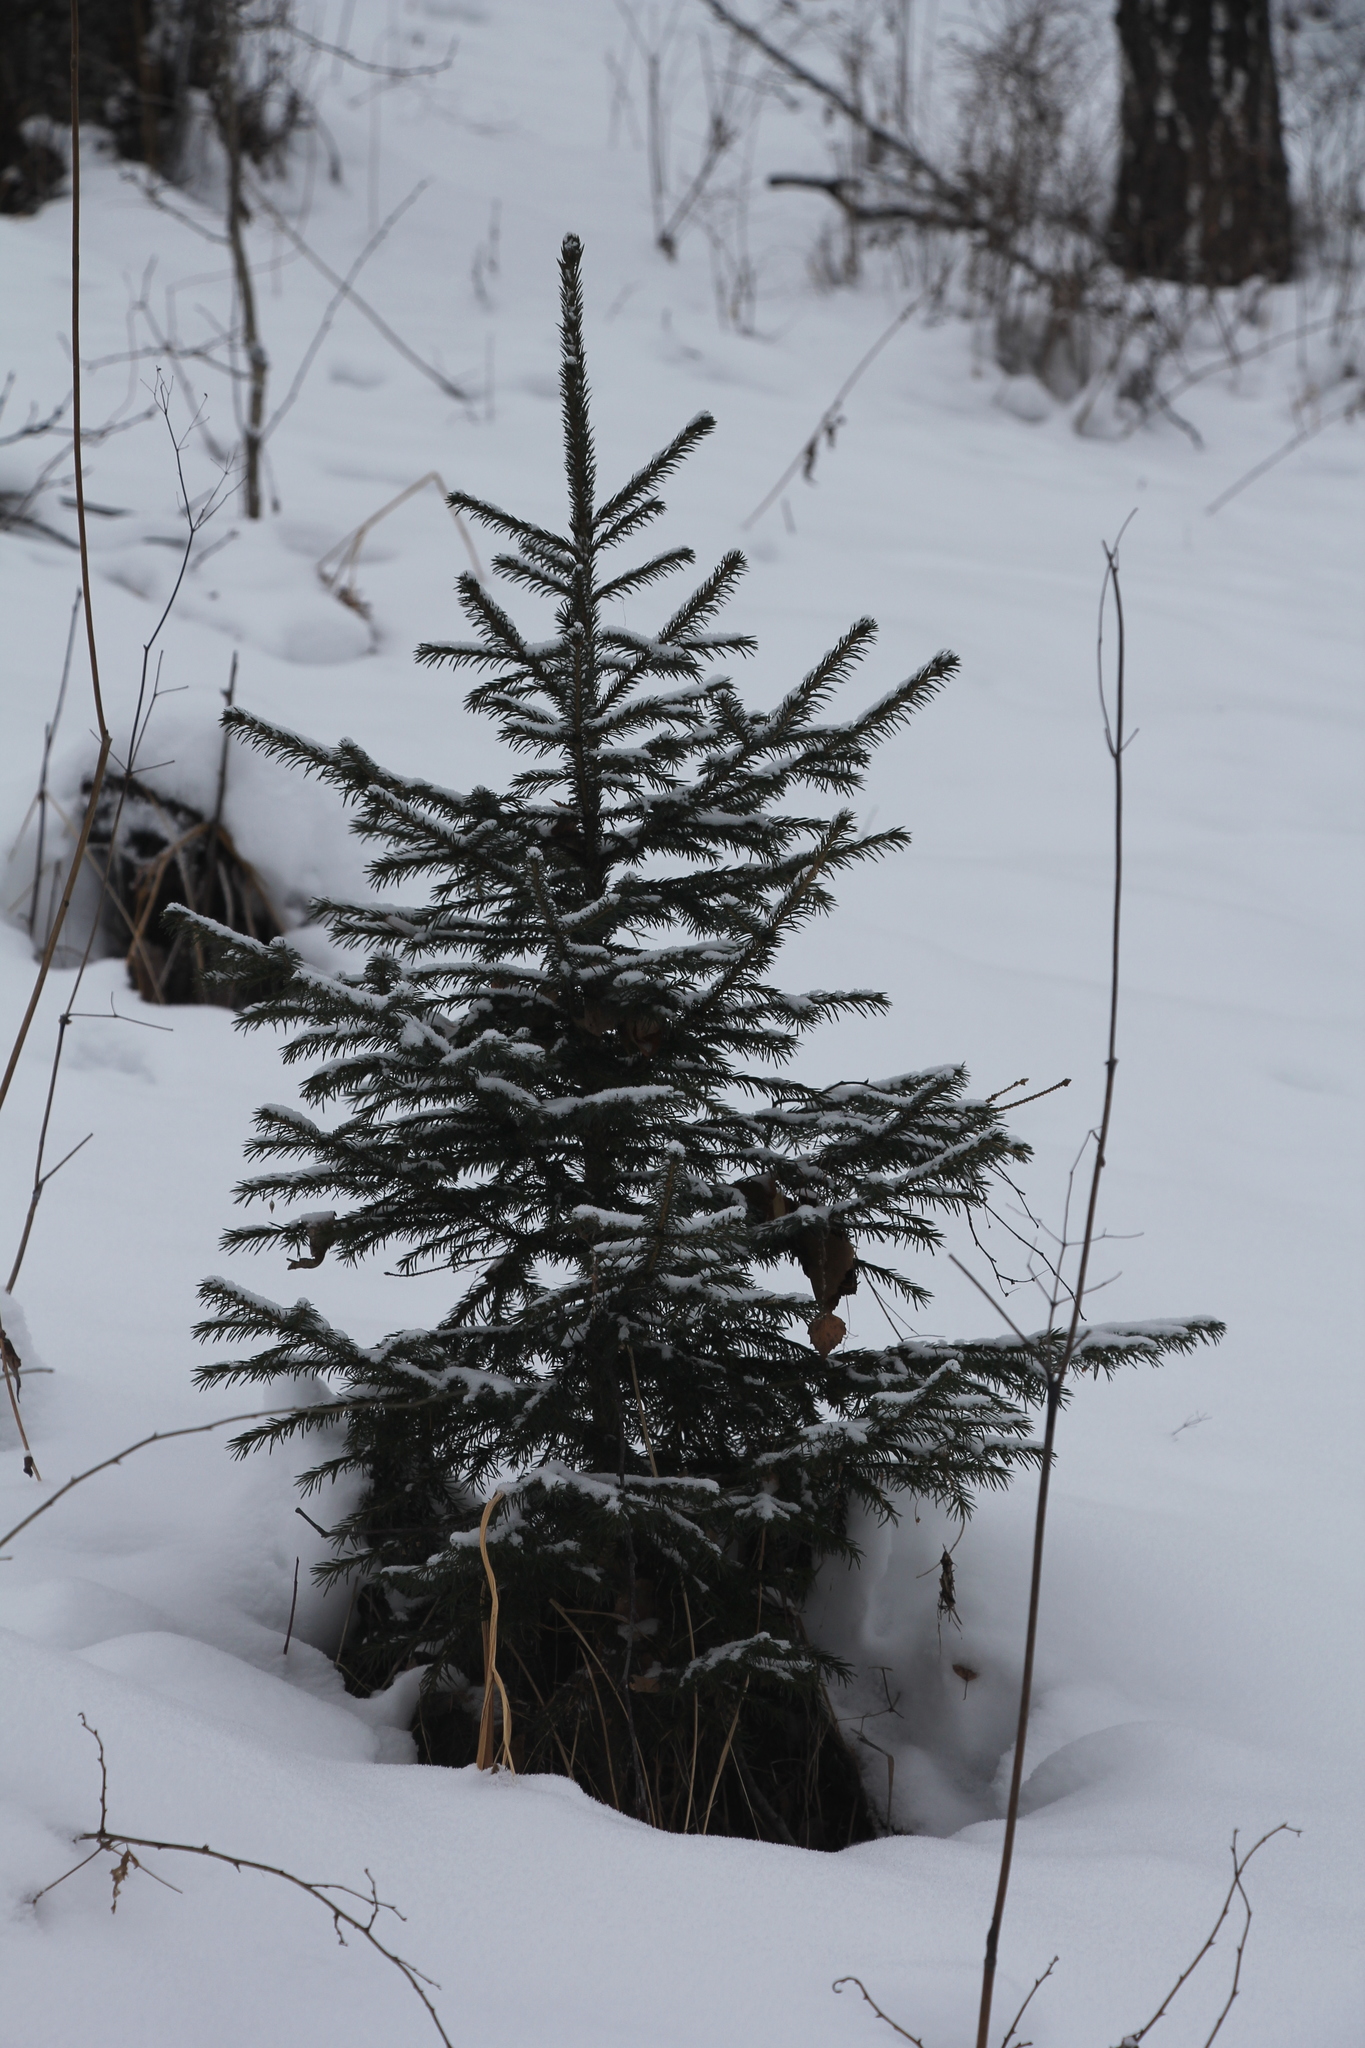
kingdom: Plantae
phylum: Tracheophyta
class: Pinopsida
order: Pinales
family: Pinaceae
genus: Picea
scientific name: Picea obovata
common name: Siberian spruce
